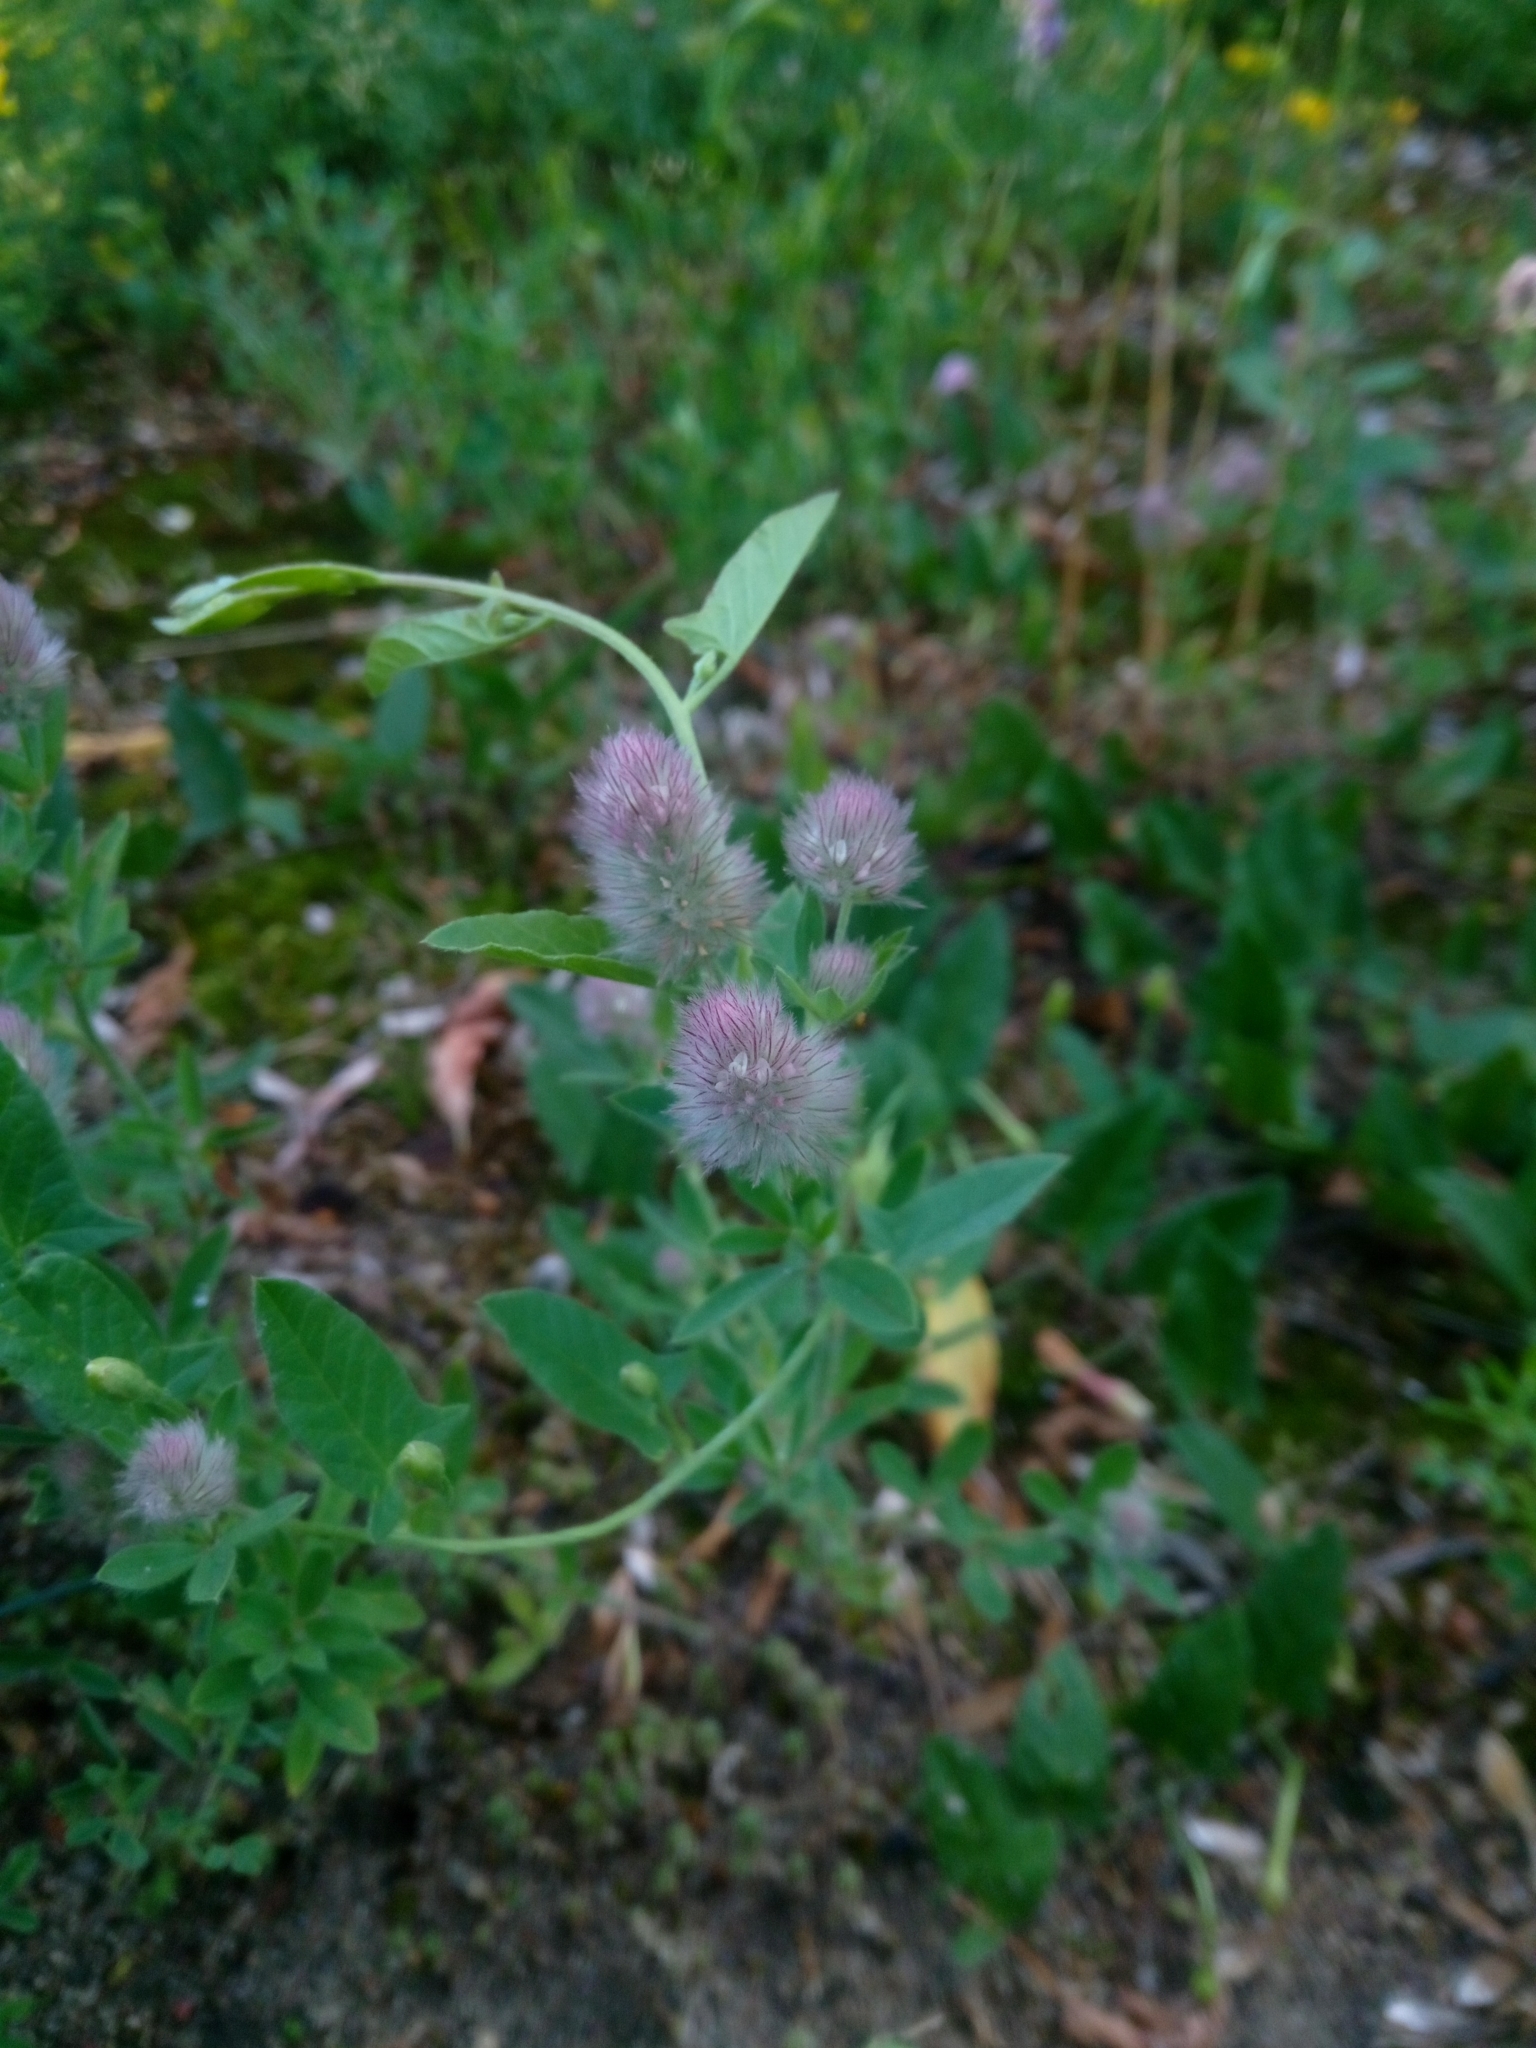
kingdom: Plantae
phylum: Tracheophyta
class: Magnoliopsida
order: Fabales
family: Fabaceae
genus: Trifolium
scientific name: Trifolium arvense
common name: Hare's-foot clover
